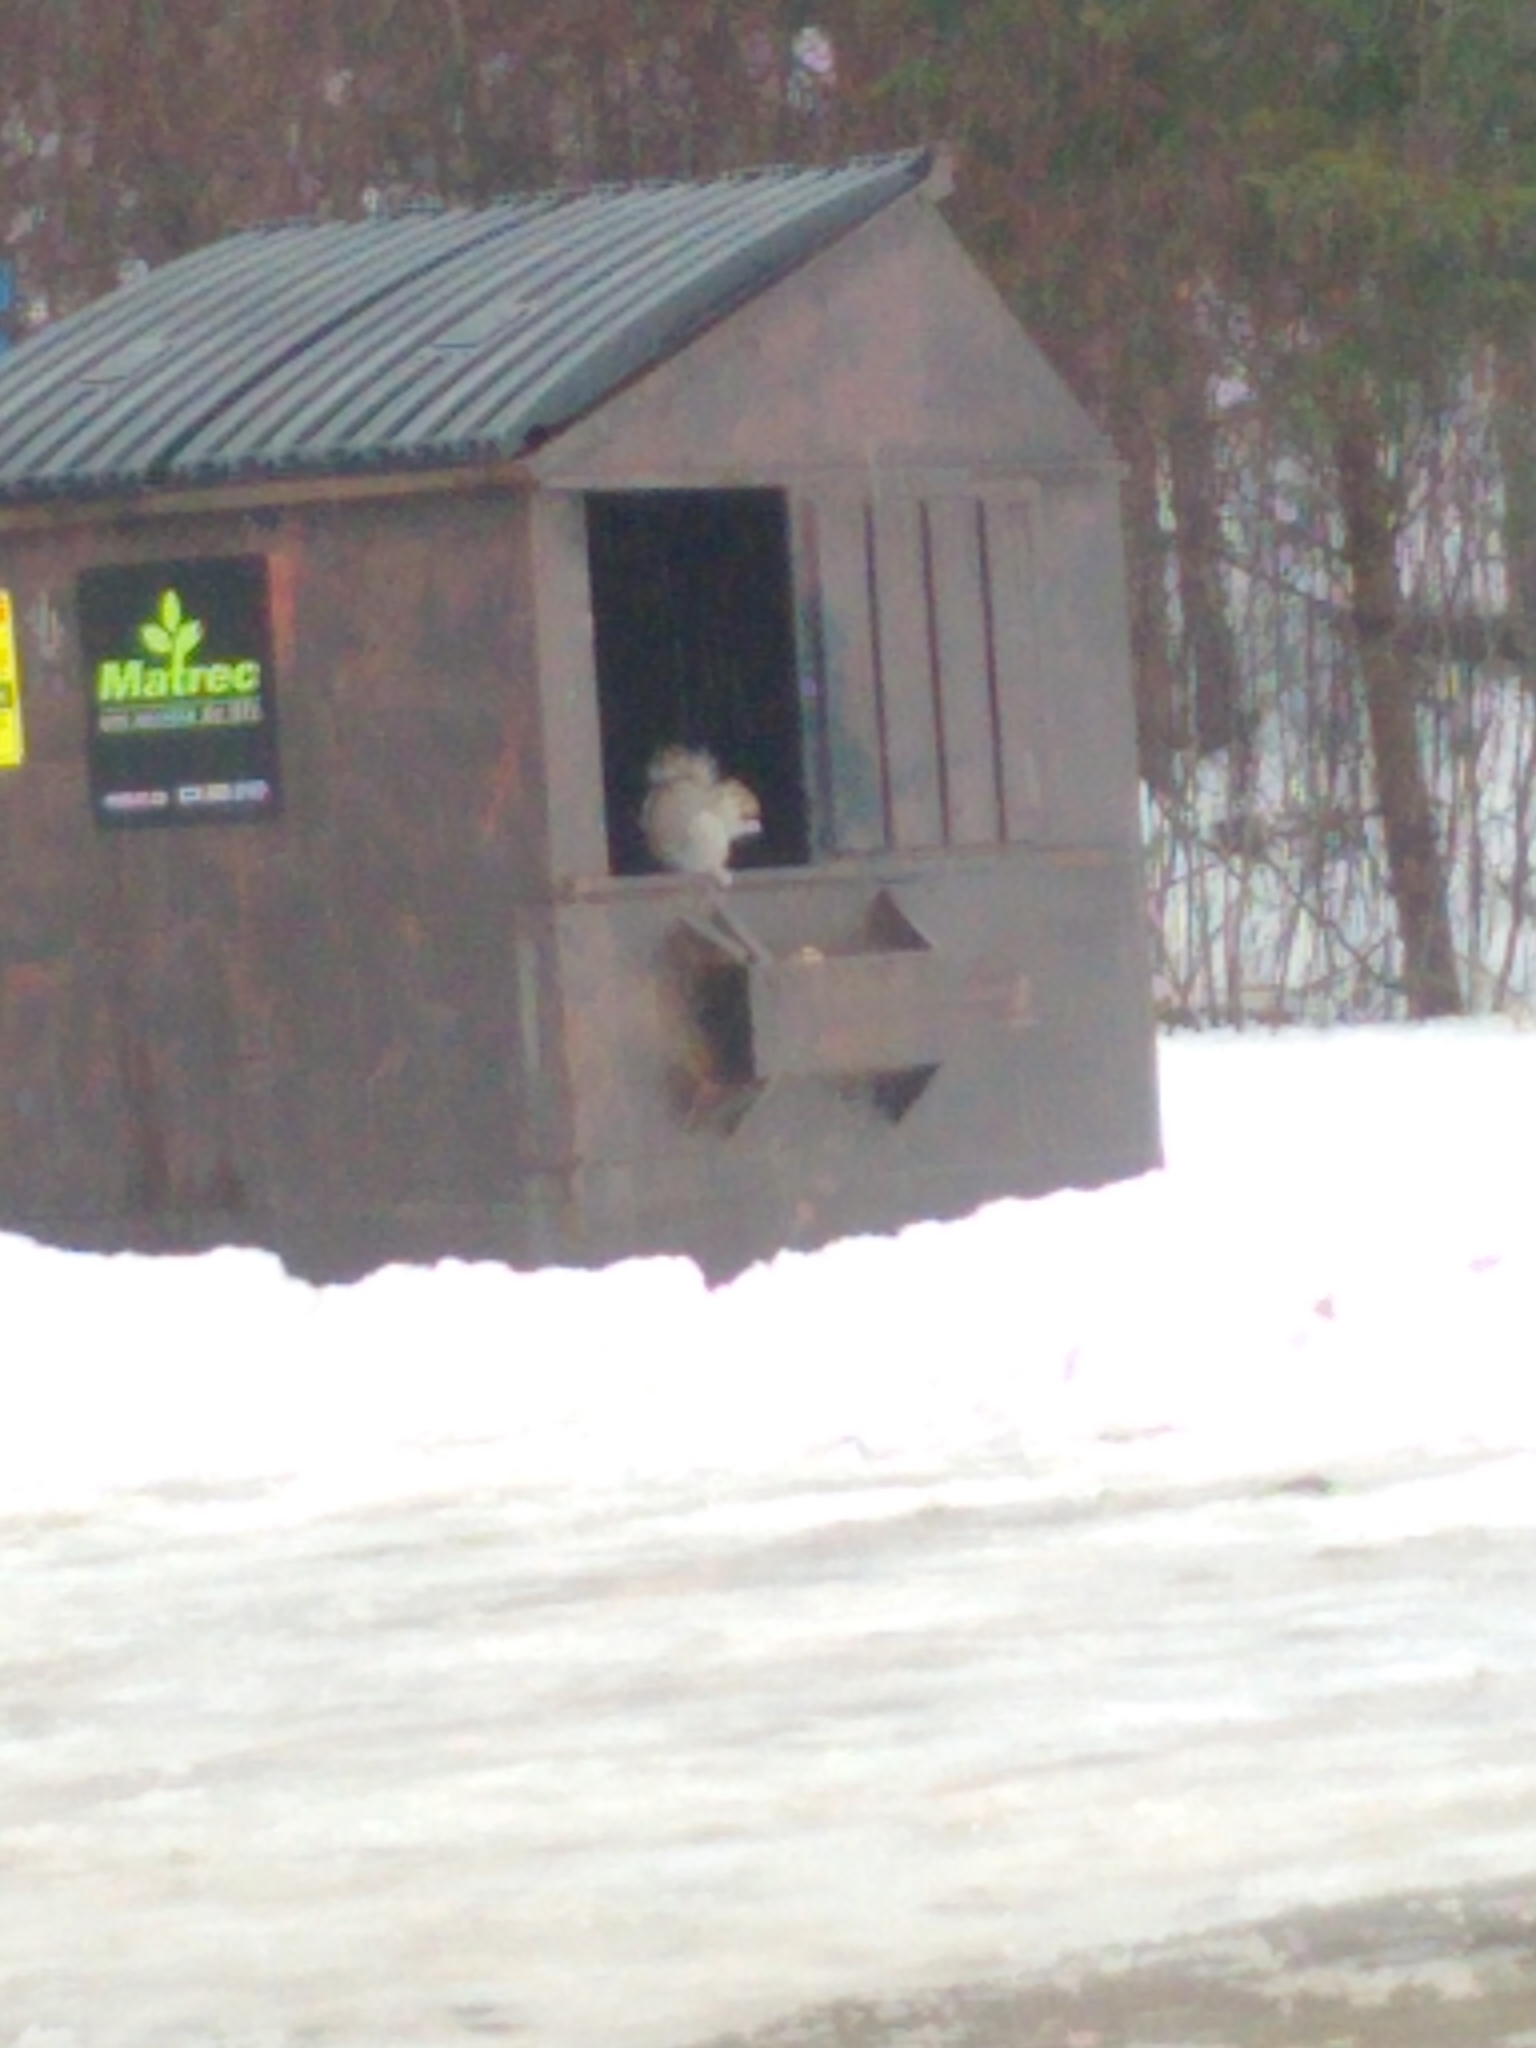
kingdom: Animalia
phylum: Chordata
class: Mammalia
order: Rodentia
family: Sciuridae
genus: Sciurus
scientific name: Sciurus carolinensis
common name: Eastern gray squirrel
